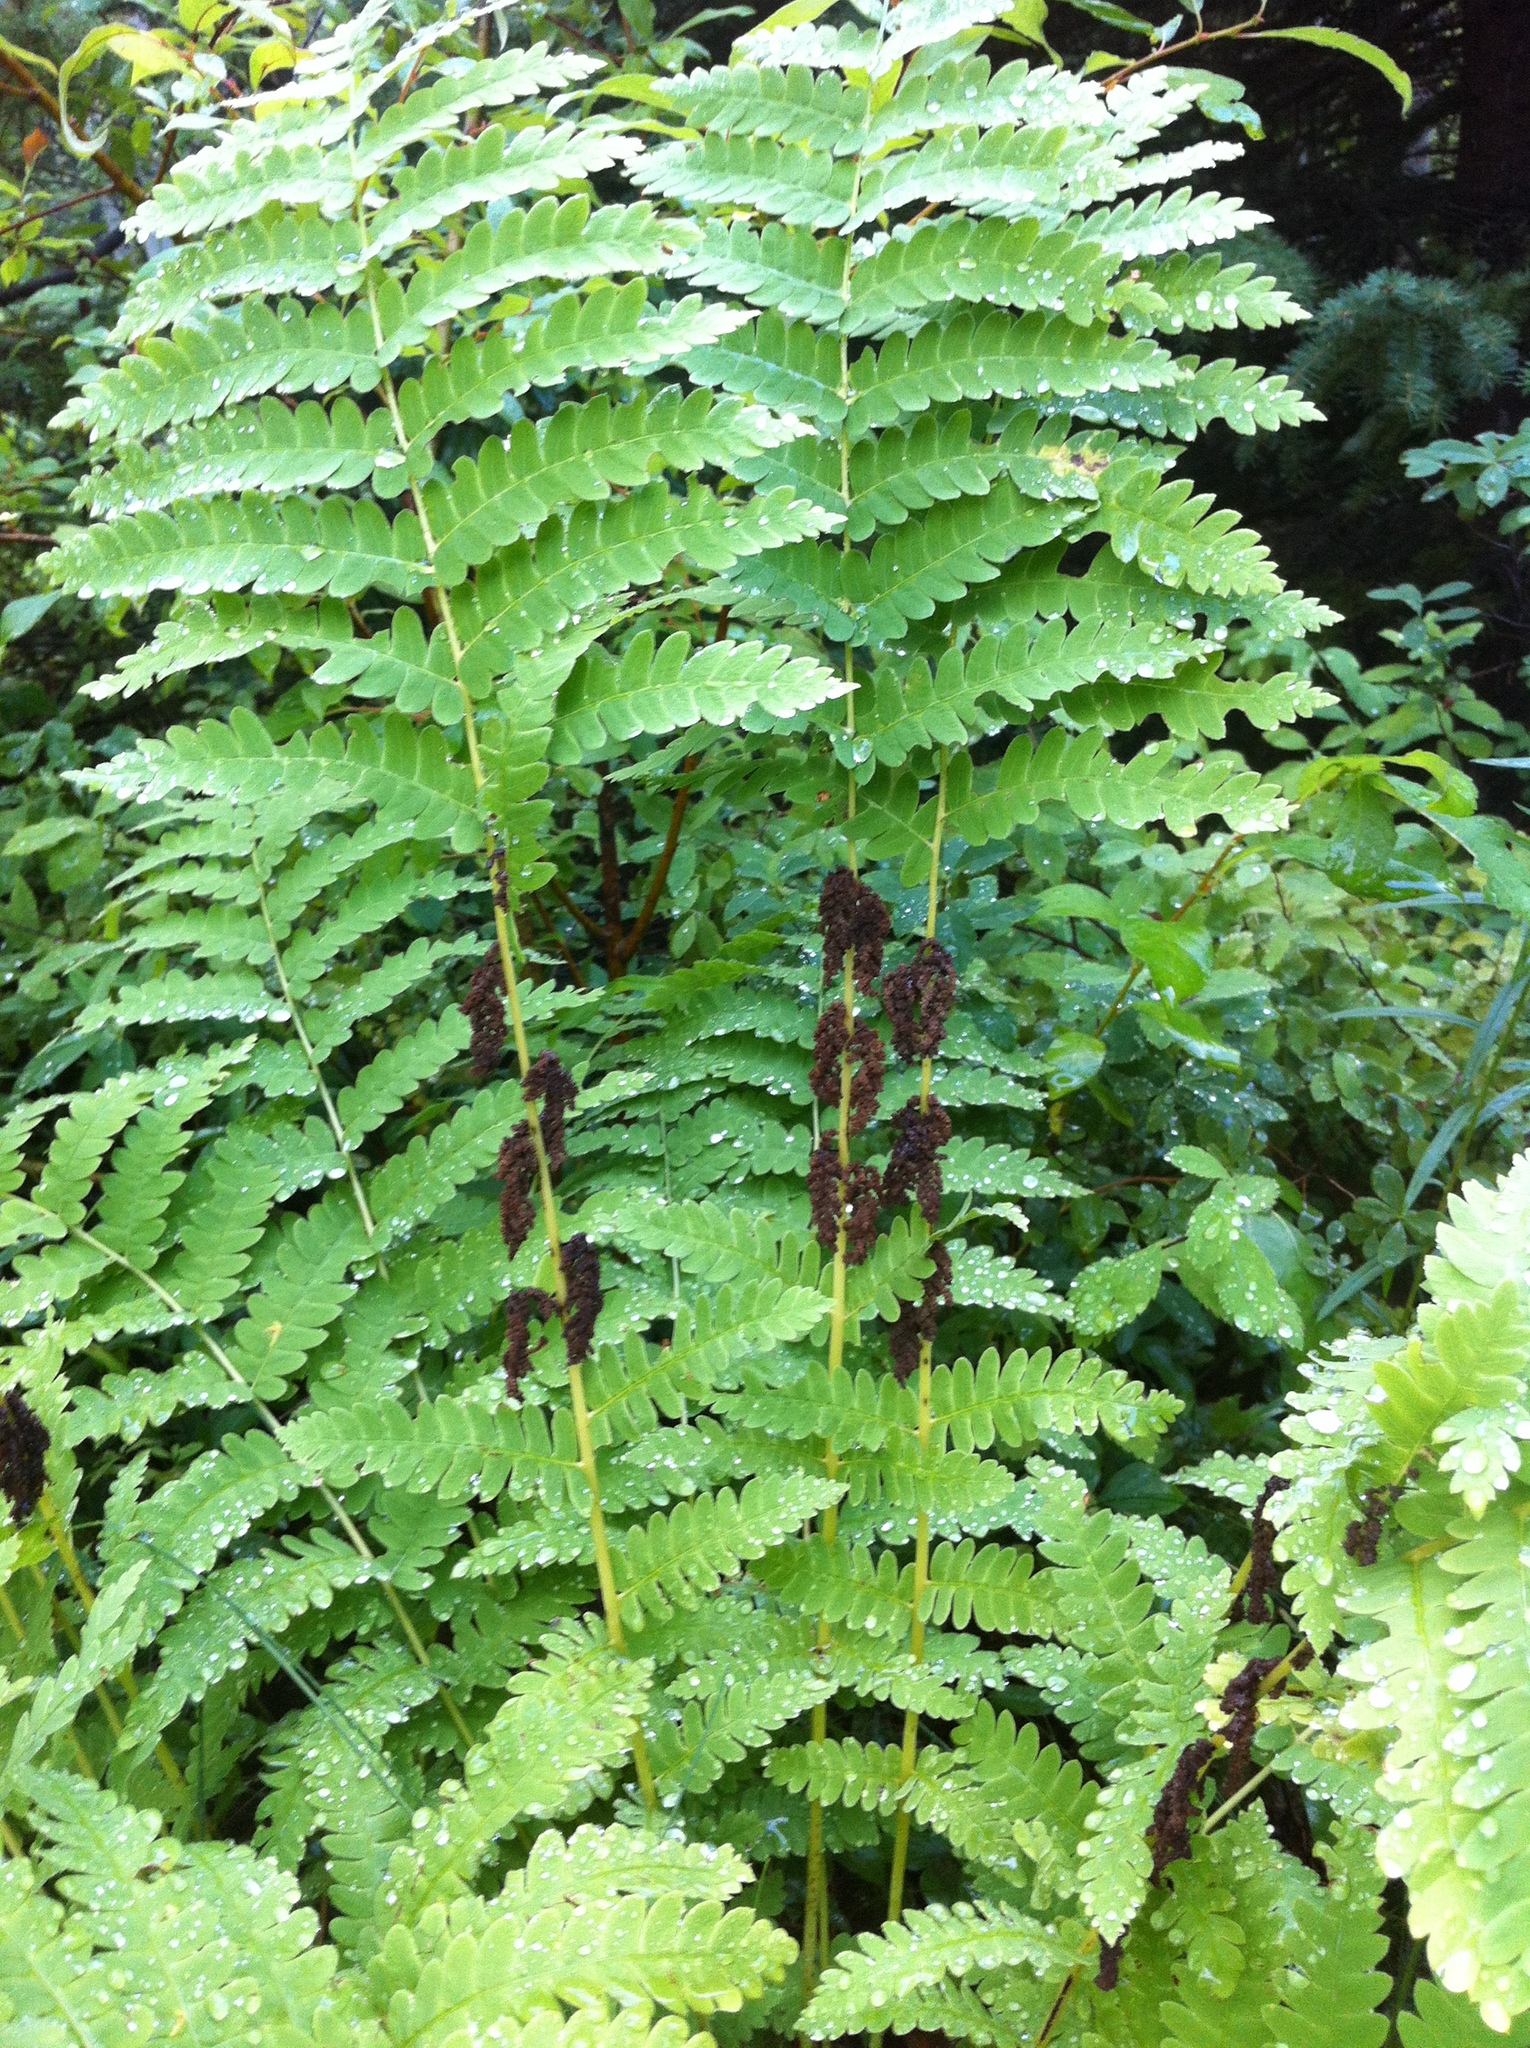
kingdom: Plantae
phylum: Tracheophyta
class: Polypodiopsida
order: Osmundales
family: Osmundaceae
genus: Claytosmunda
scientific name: Claytosmunda claytoniana
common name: Clayton's fern
